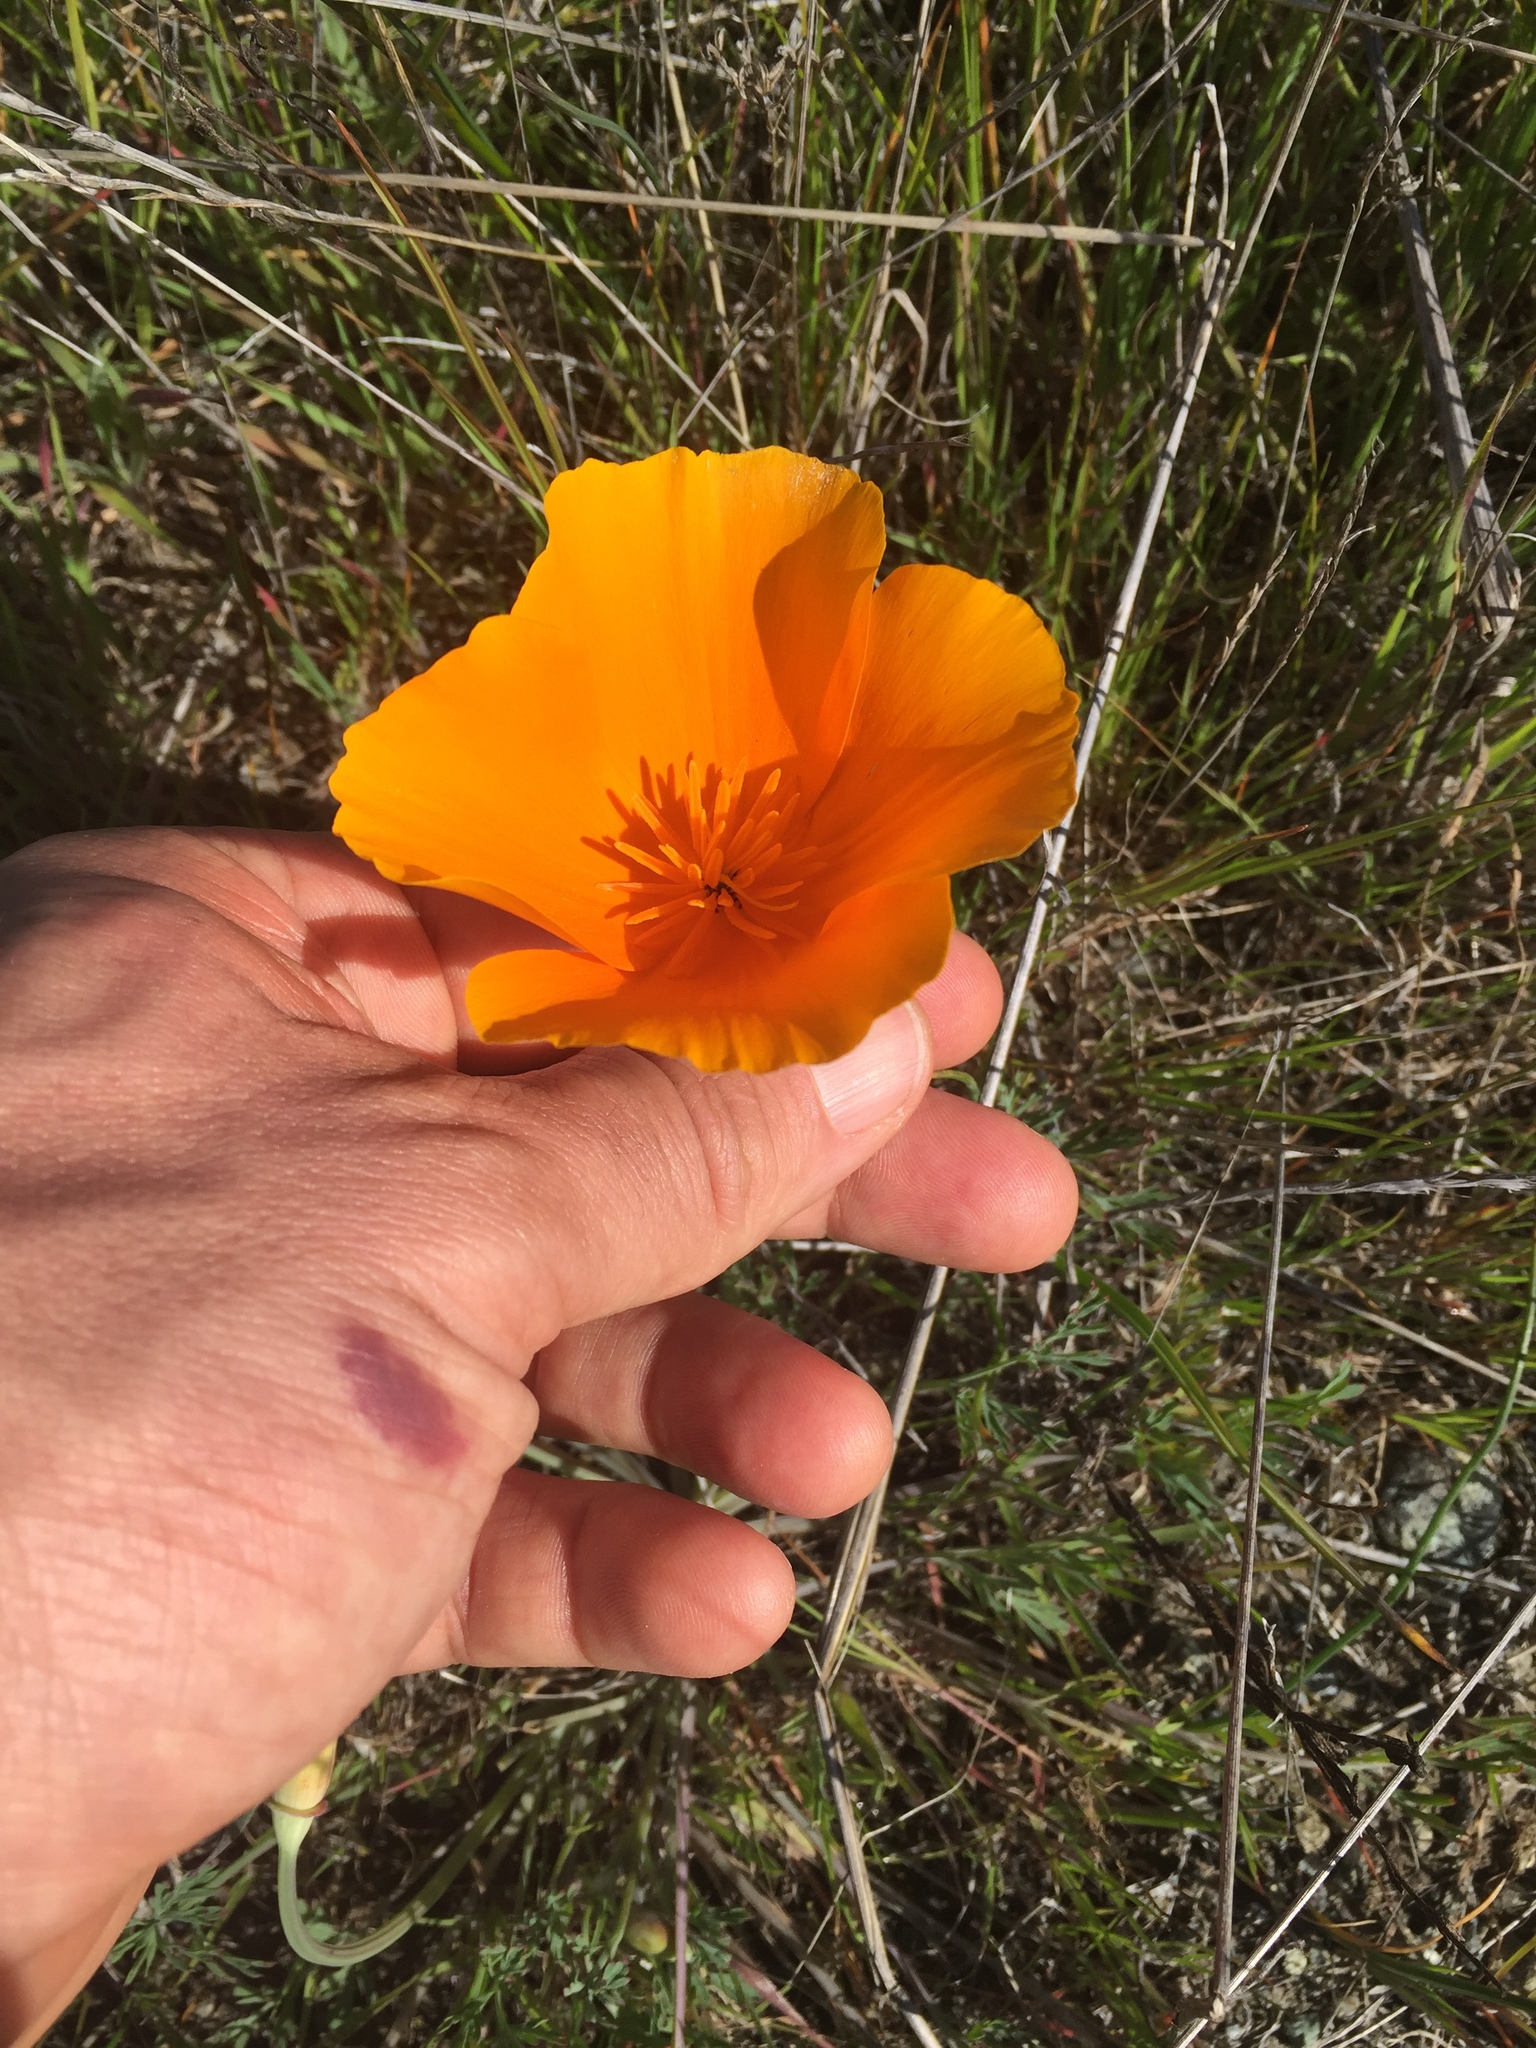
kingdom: Plantae
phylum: Tracheophyta
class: Magnoliopsida
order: Ranunculales
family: Papaveraceae
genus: Eschscholzia
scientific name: Eschscholzia californica
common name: California poppy
